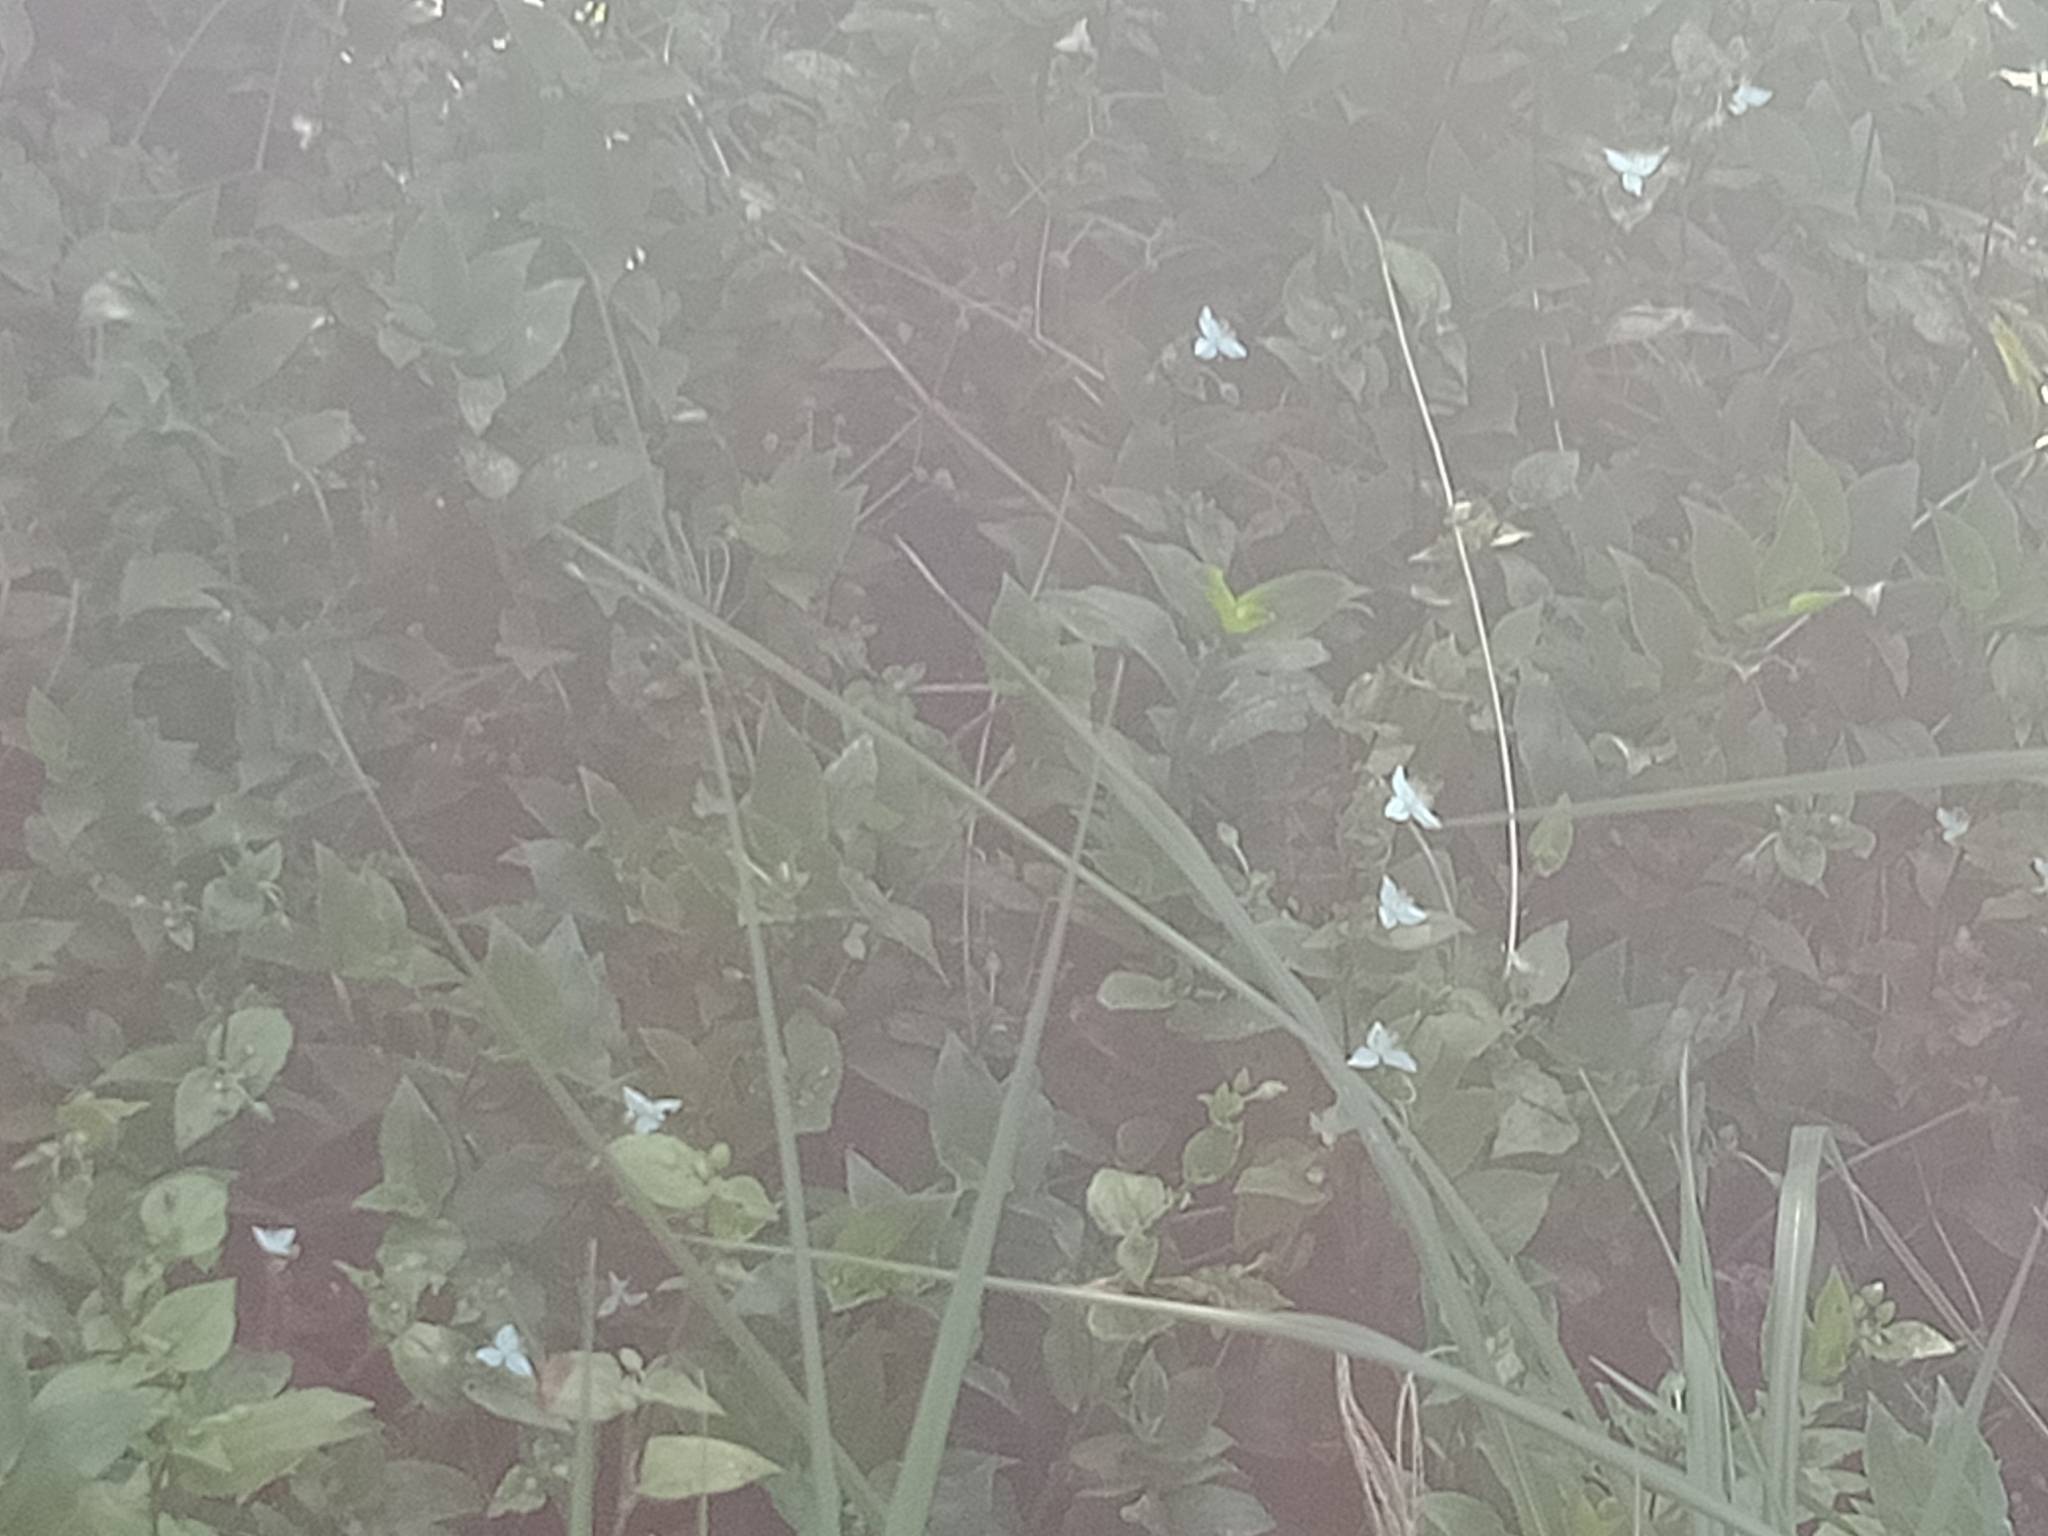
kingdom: Plantae
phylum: Tracheophyta
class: Liliopsida
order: Commelinales
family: Commelinaceae
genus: Tradescantia
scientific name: Tradescantia fluminensis
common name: Wandering-jew
